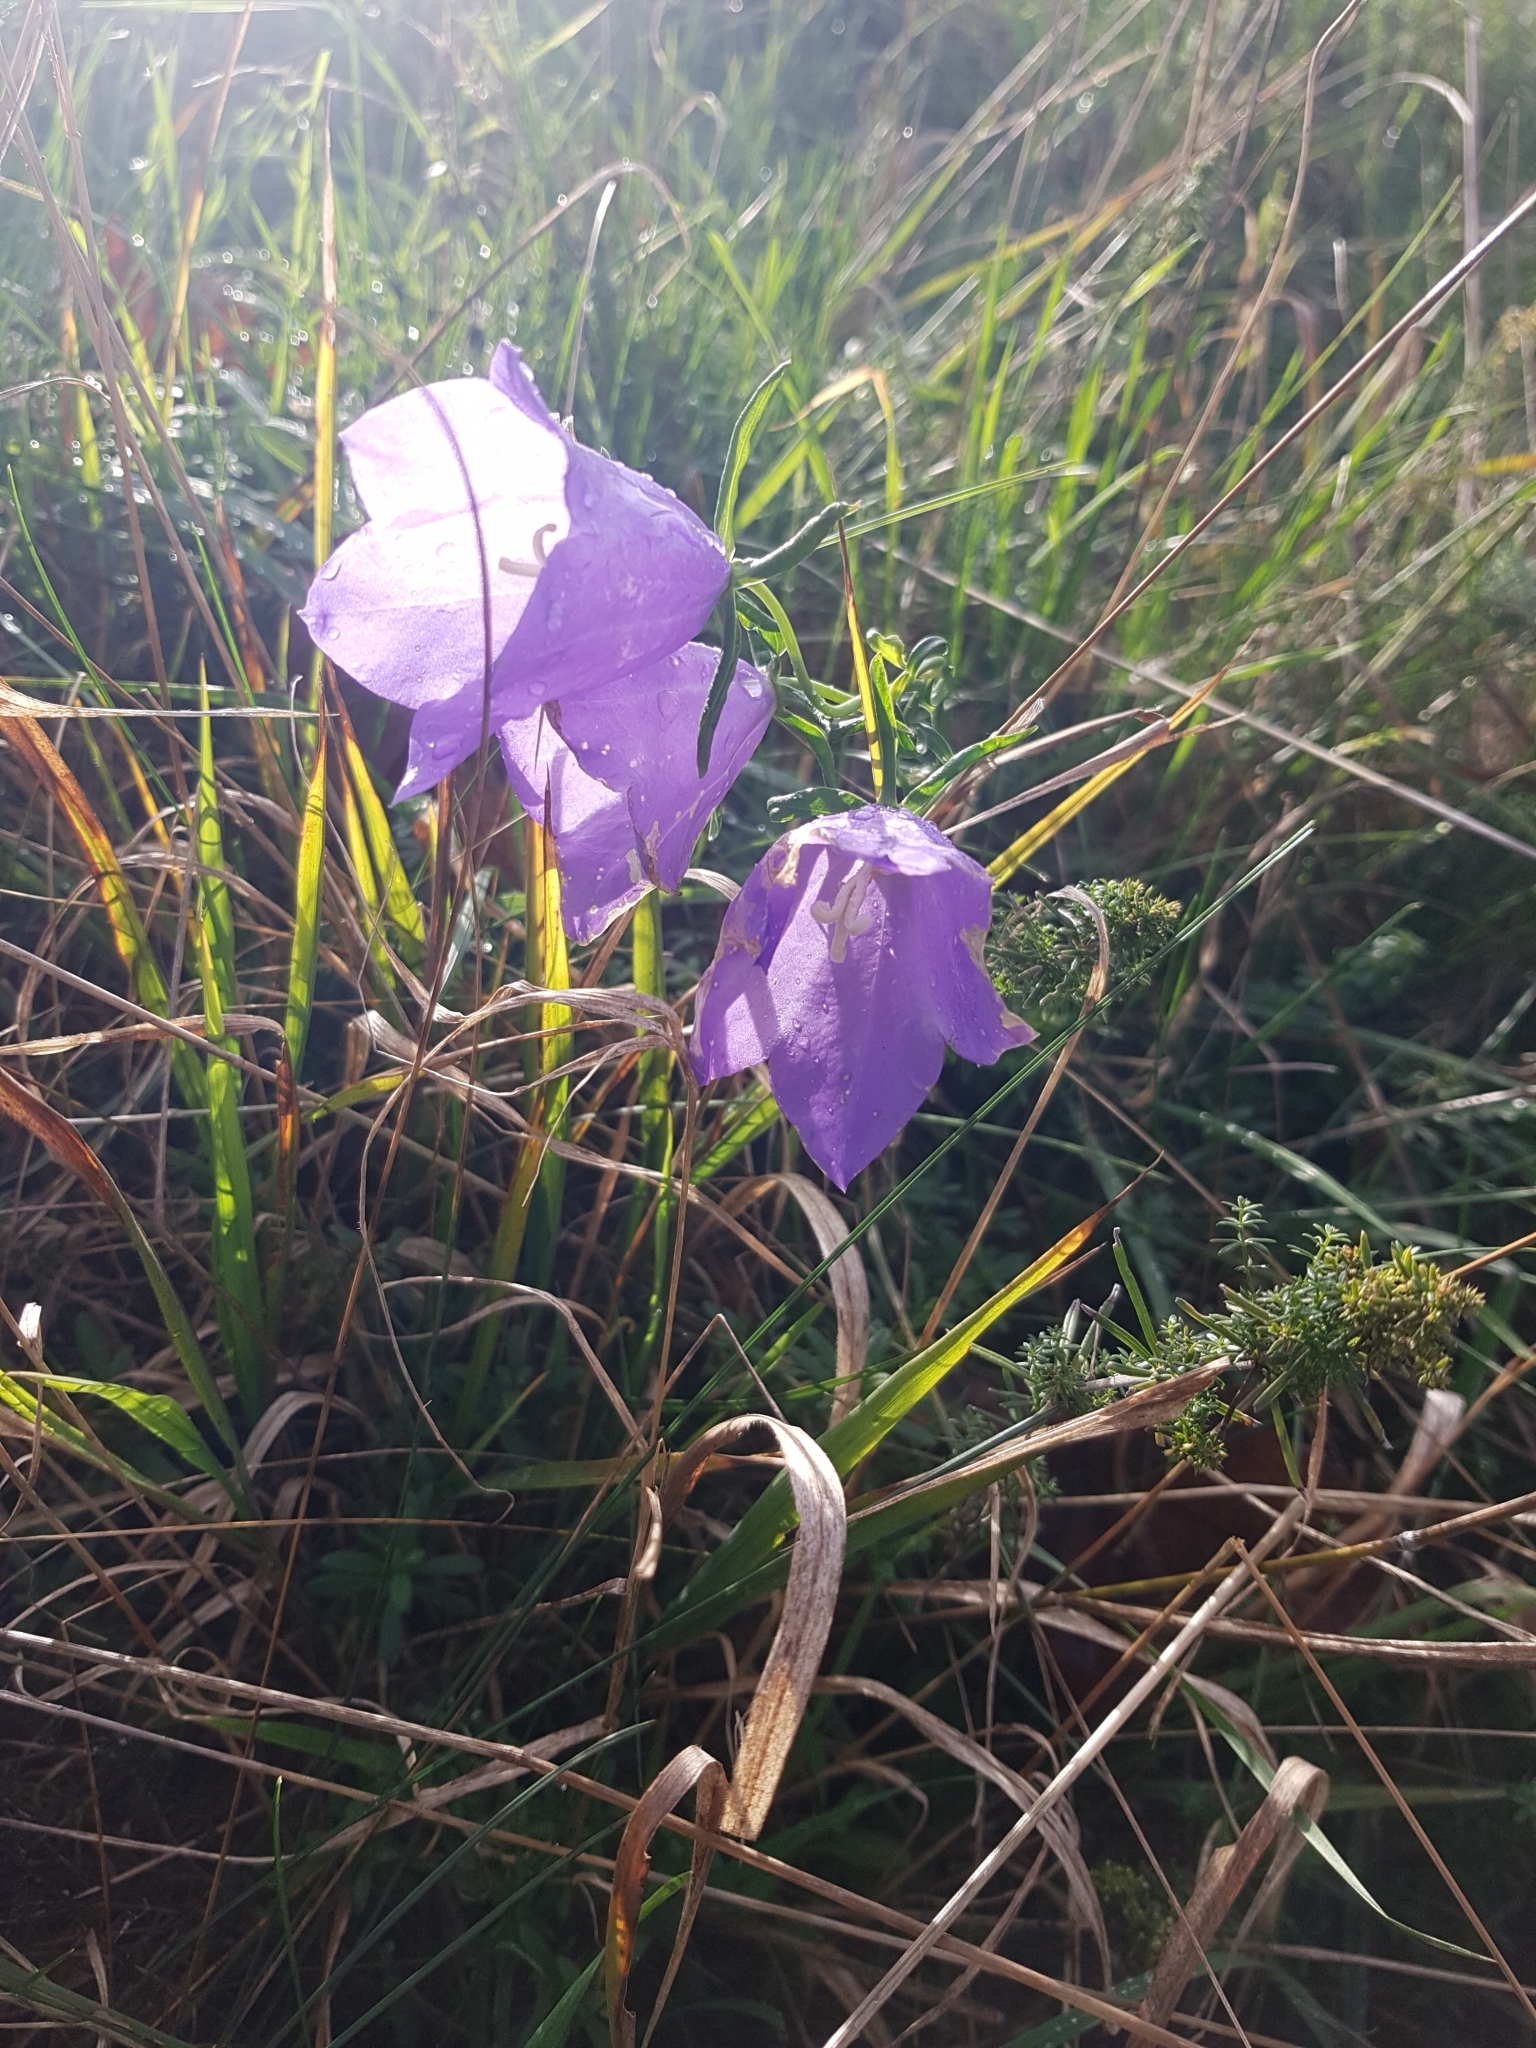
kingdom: Plantae
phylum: Tracheophyta
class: Magnoliopsida
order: Asterales
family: Campanulaceae
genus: Campanula
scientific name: Campanula persicifolia
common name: Peach-leaved bellflower
